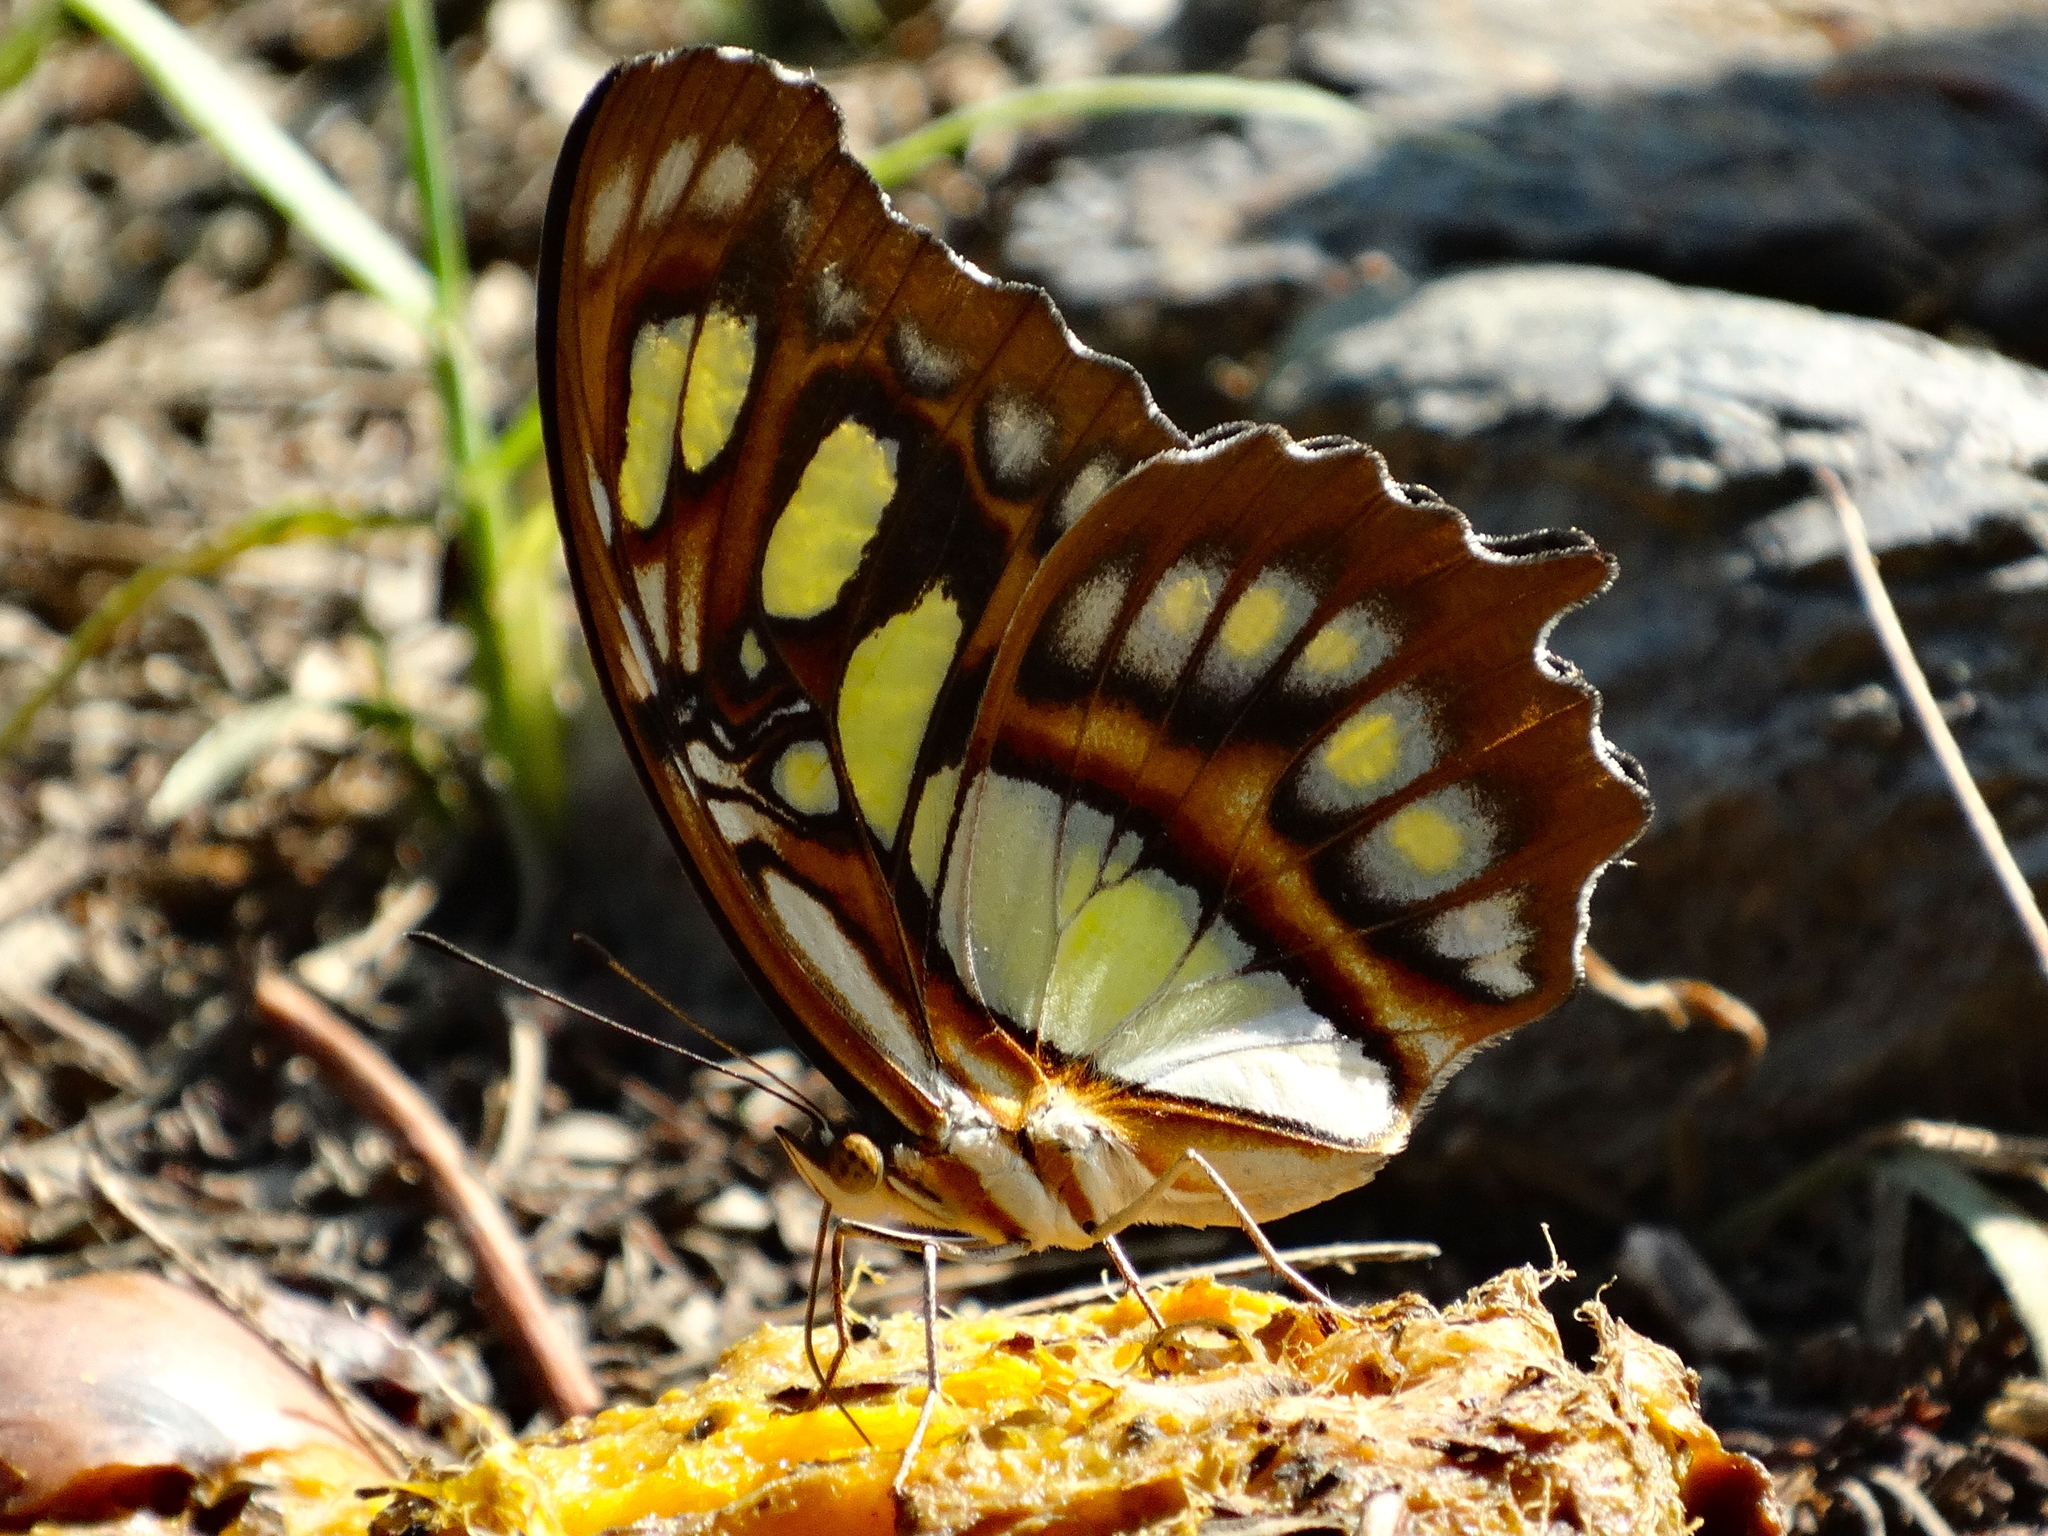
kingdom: Animalia
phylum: Arthropoda
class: Insecta
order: Lepidoptera
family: Nymphalidae
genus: Siproeta
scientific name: Siproeta stelenes
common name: Malachite
